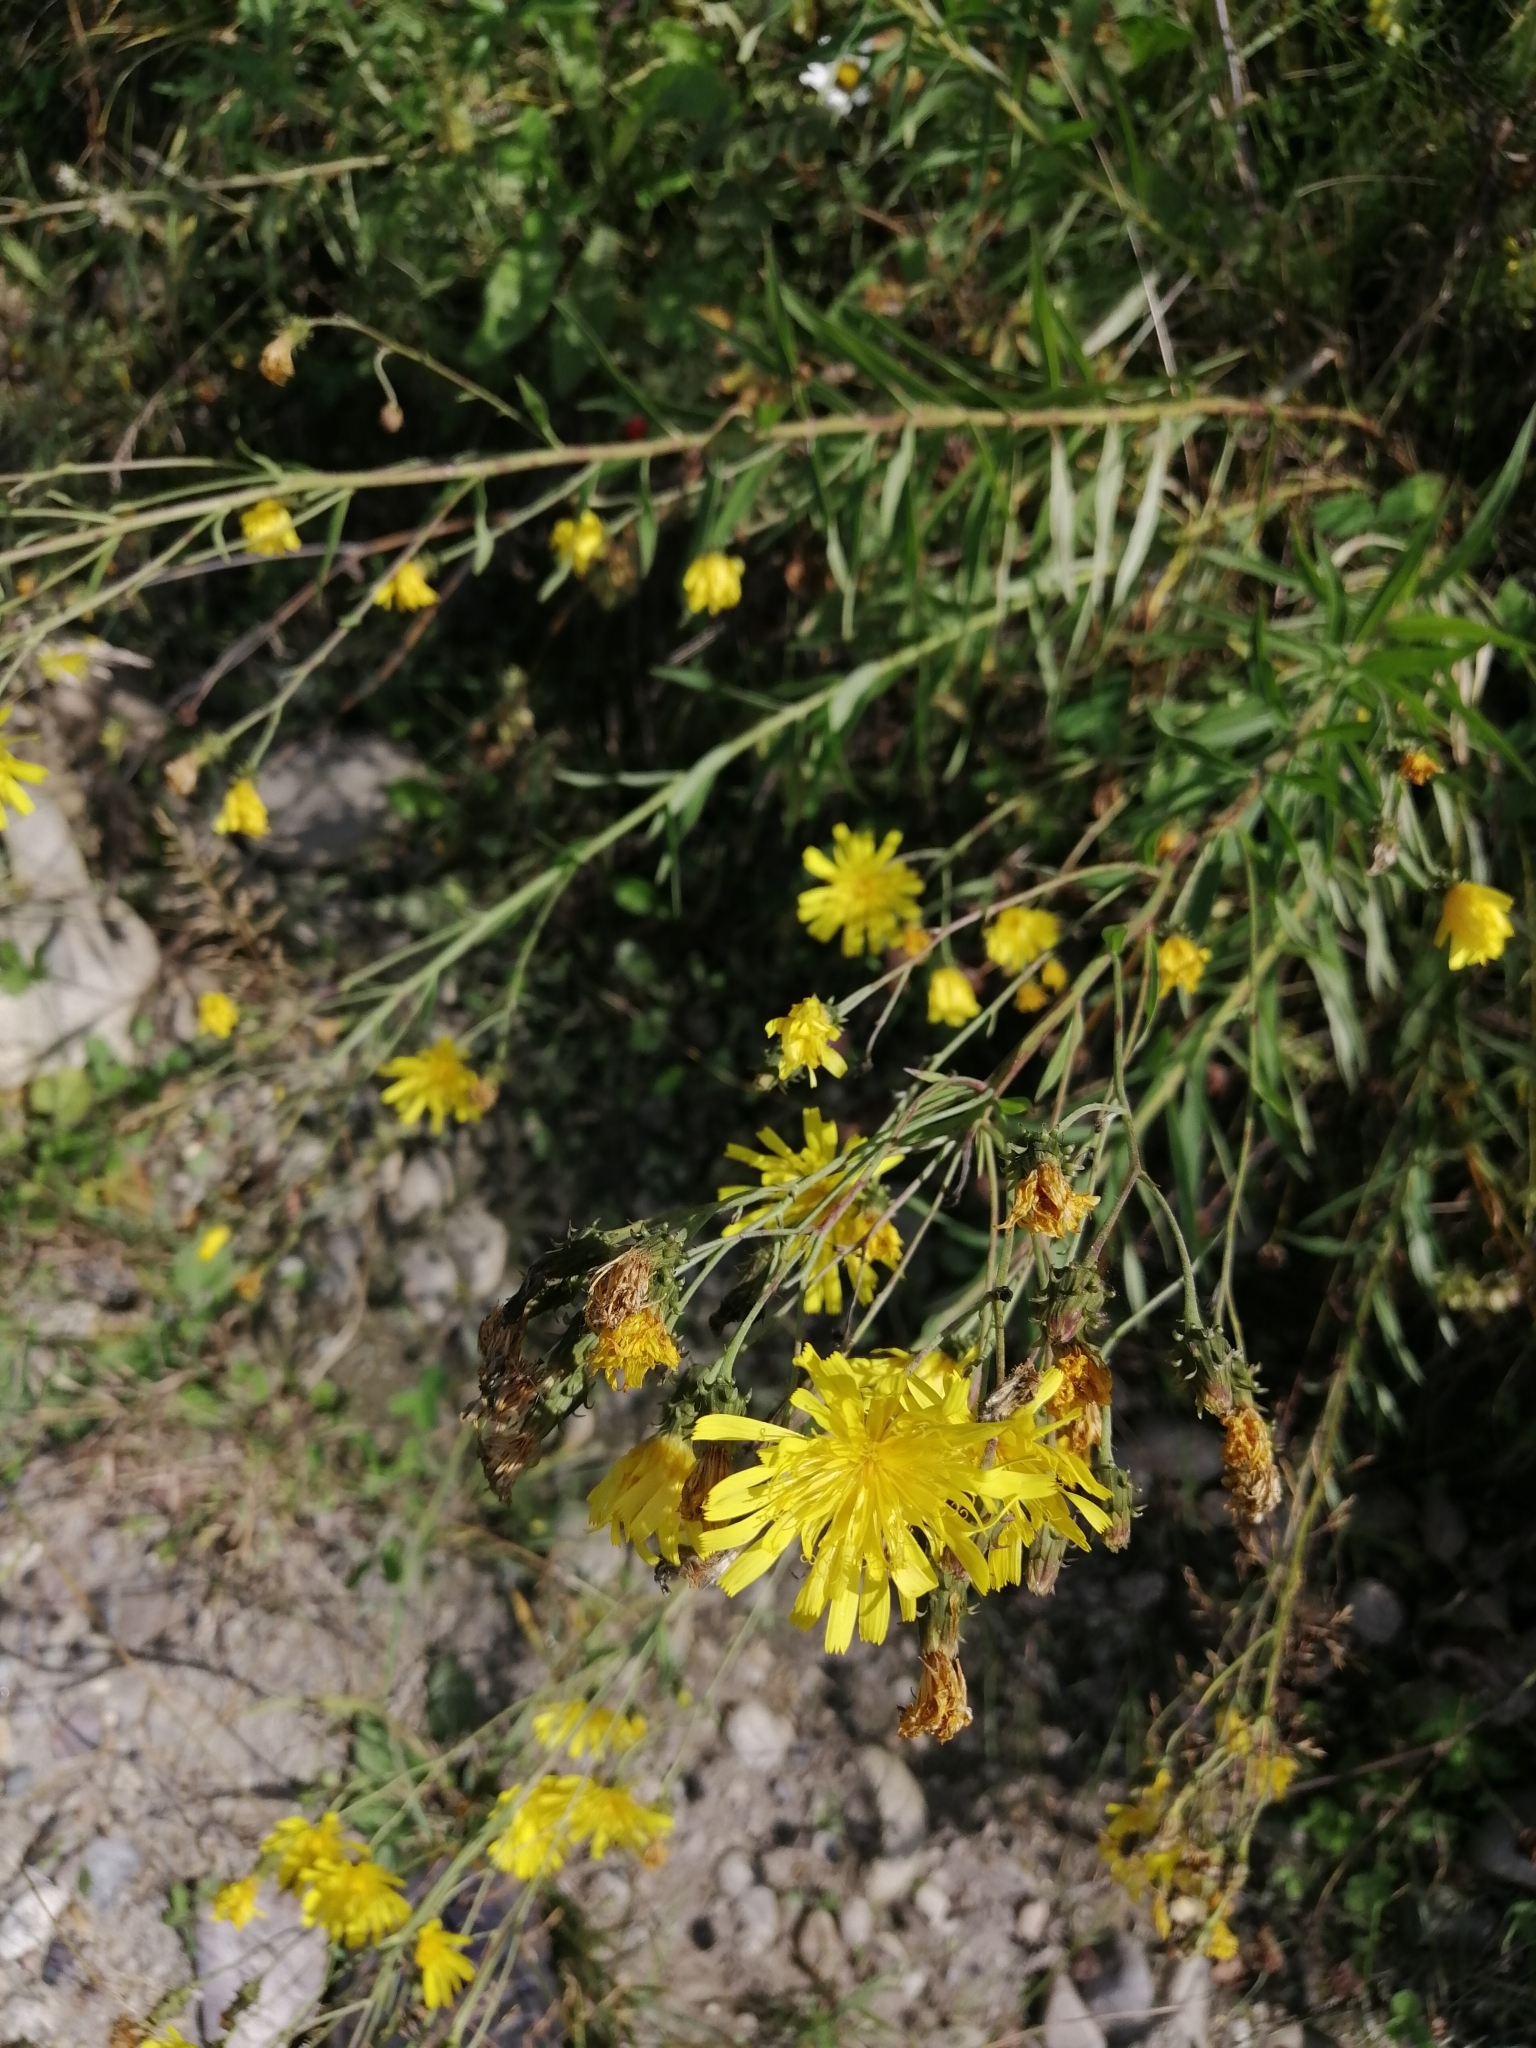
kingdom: Plantae
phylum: Tracheophyta
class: Magnoliopsida
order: Asterales
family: Asteraceae
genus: Hieracium
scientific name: Hieracium umbellatum
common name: Northern hawkweed
